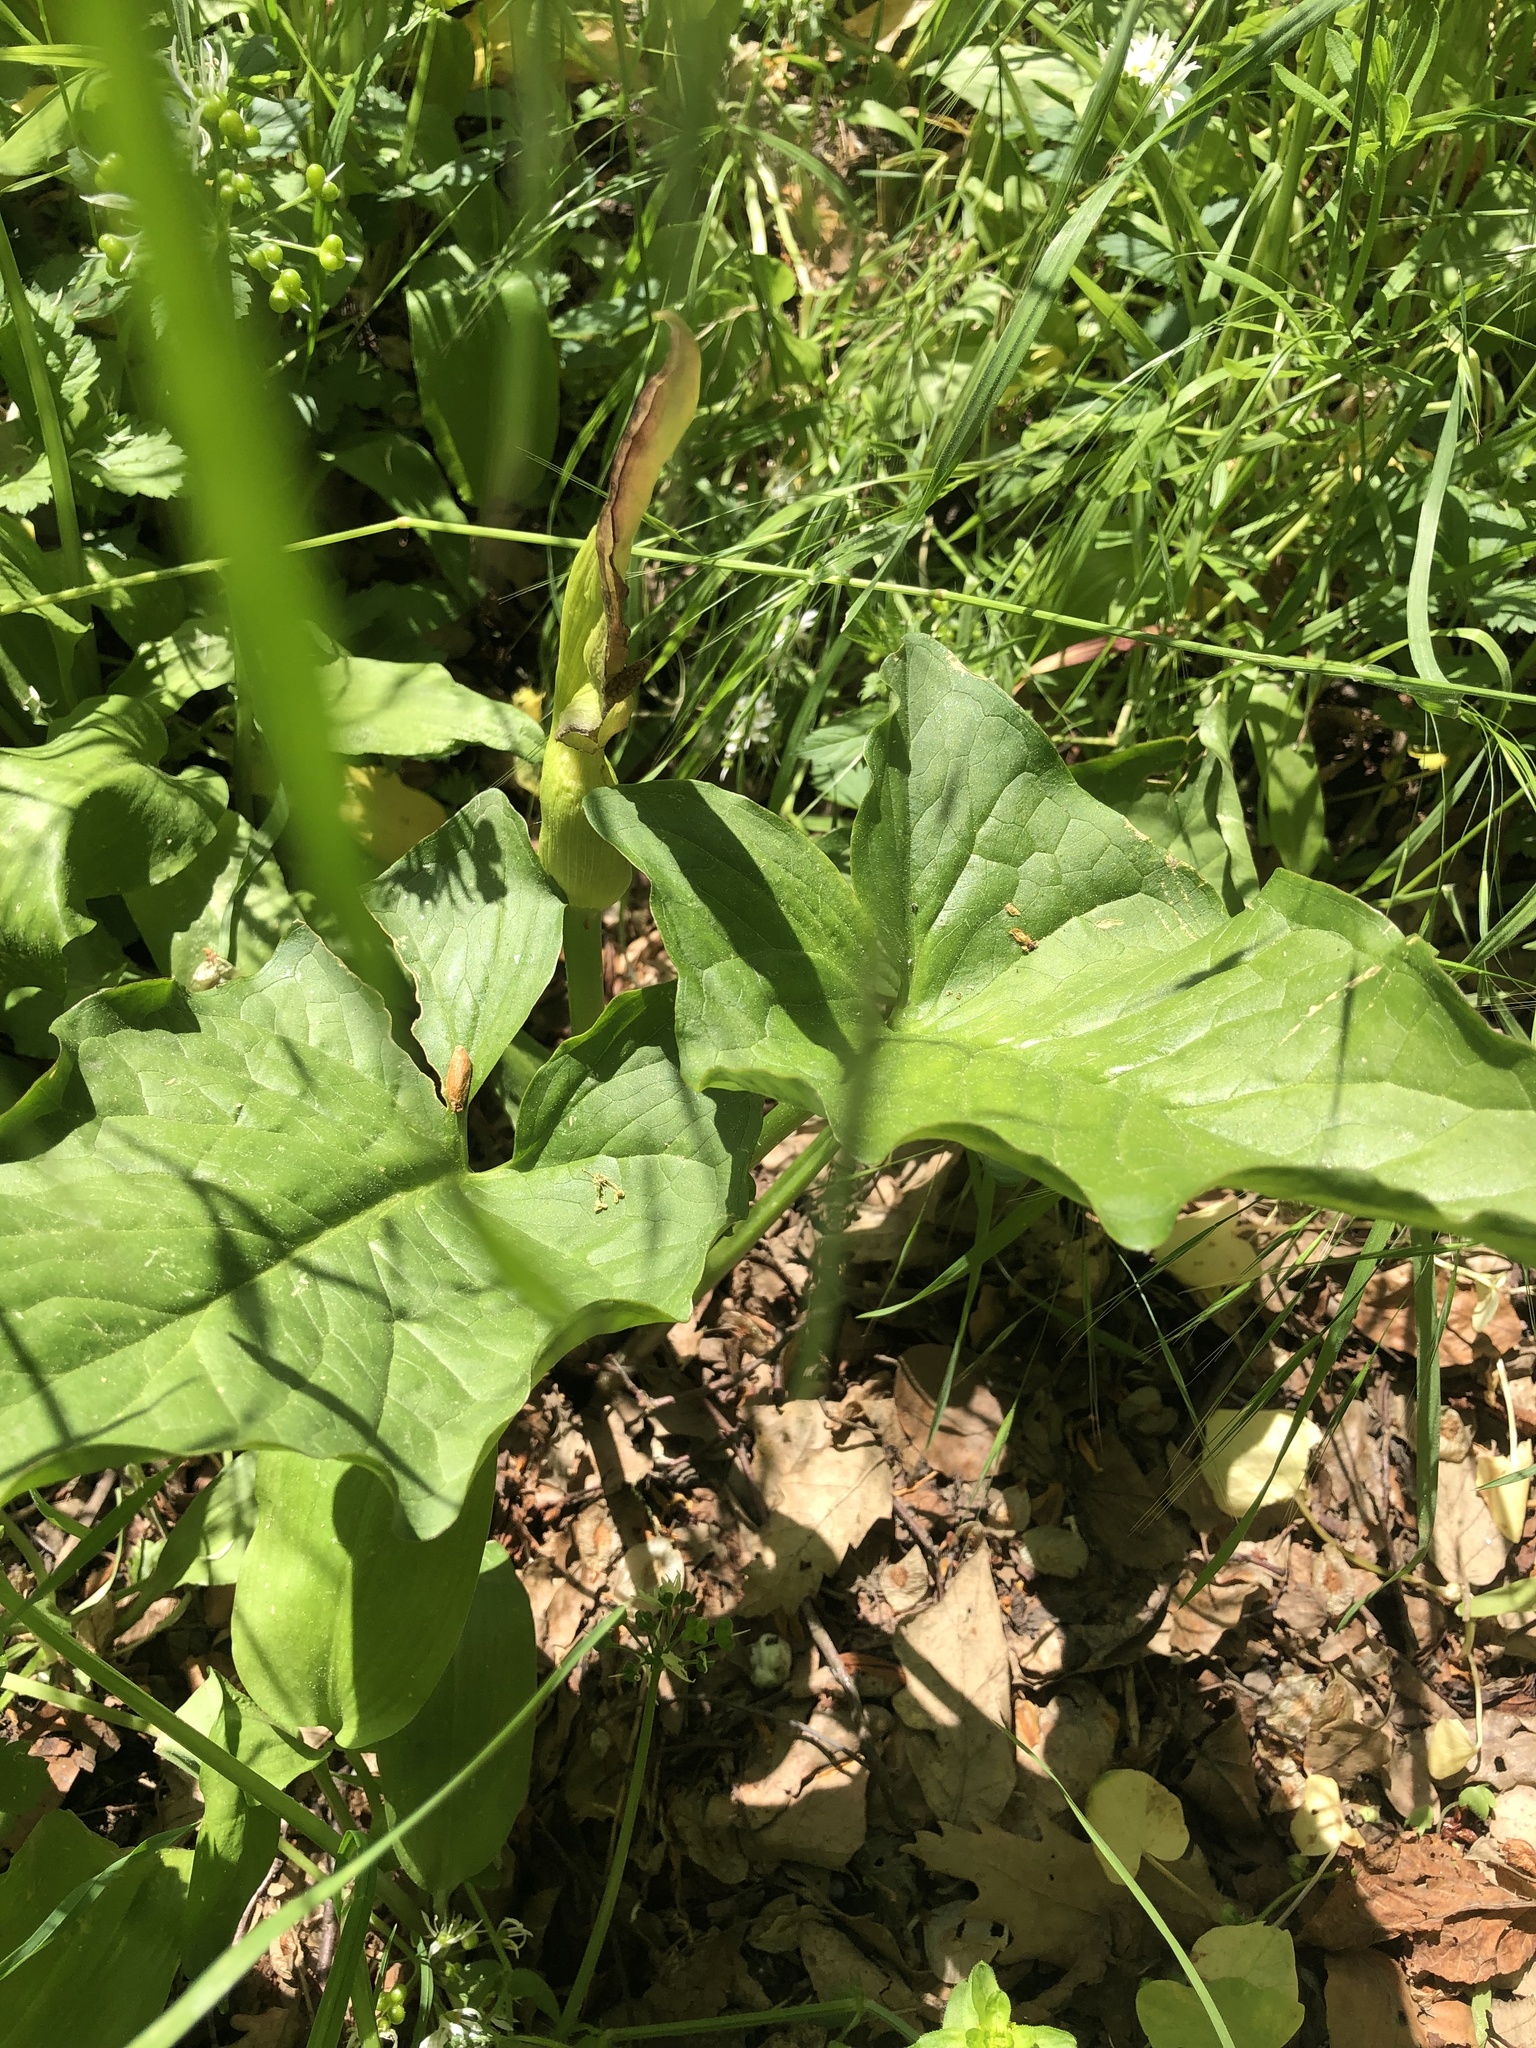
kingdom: Plantae
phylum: Tracheophyta
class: Liliopsida
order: Alismatales
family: Araceae
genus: Arum
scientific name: Arum cylindraceum
